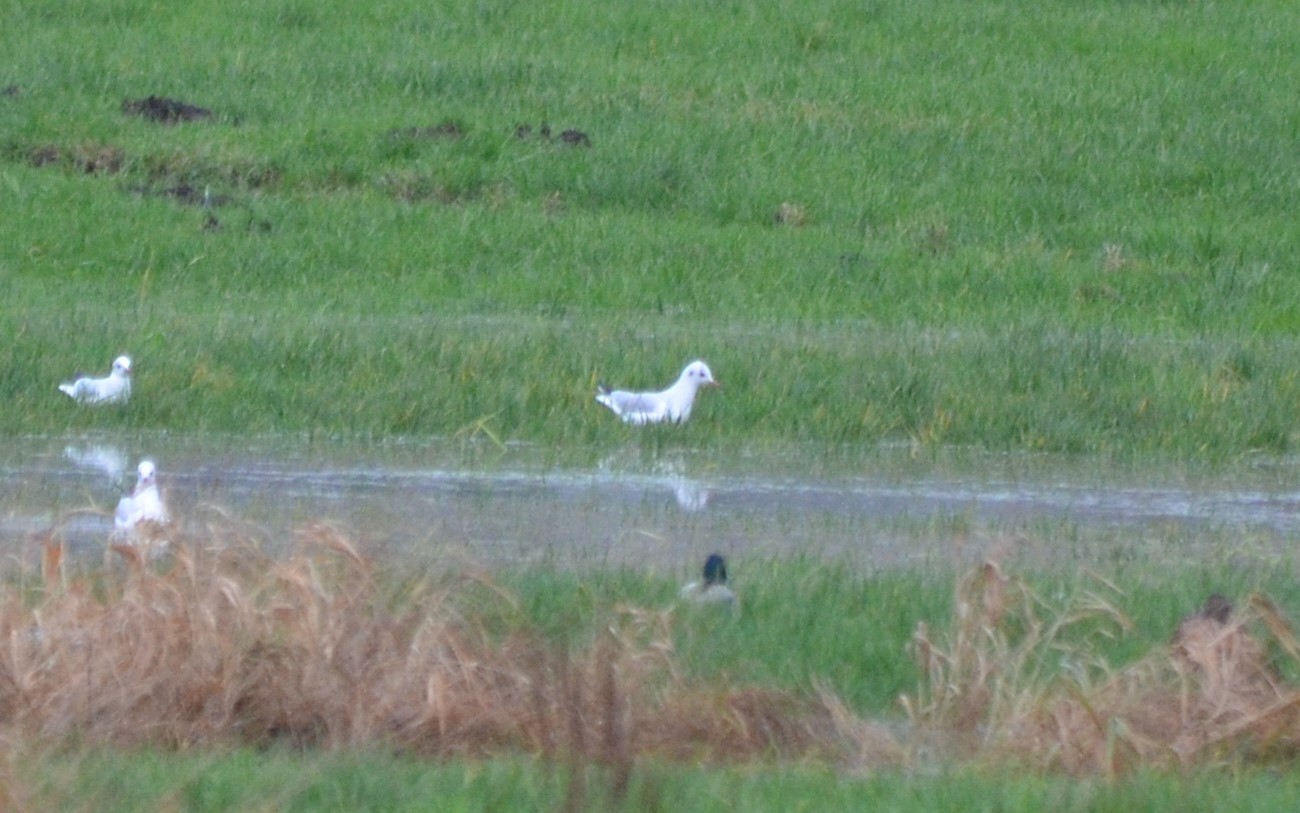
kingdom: Animalia
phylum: Chordata
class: Aves
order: Charadriiformes
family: Laridae
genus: Chroicocephalus
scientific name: Chroicocephalus ridibundus
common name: Black-headed gull
